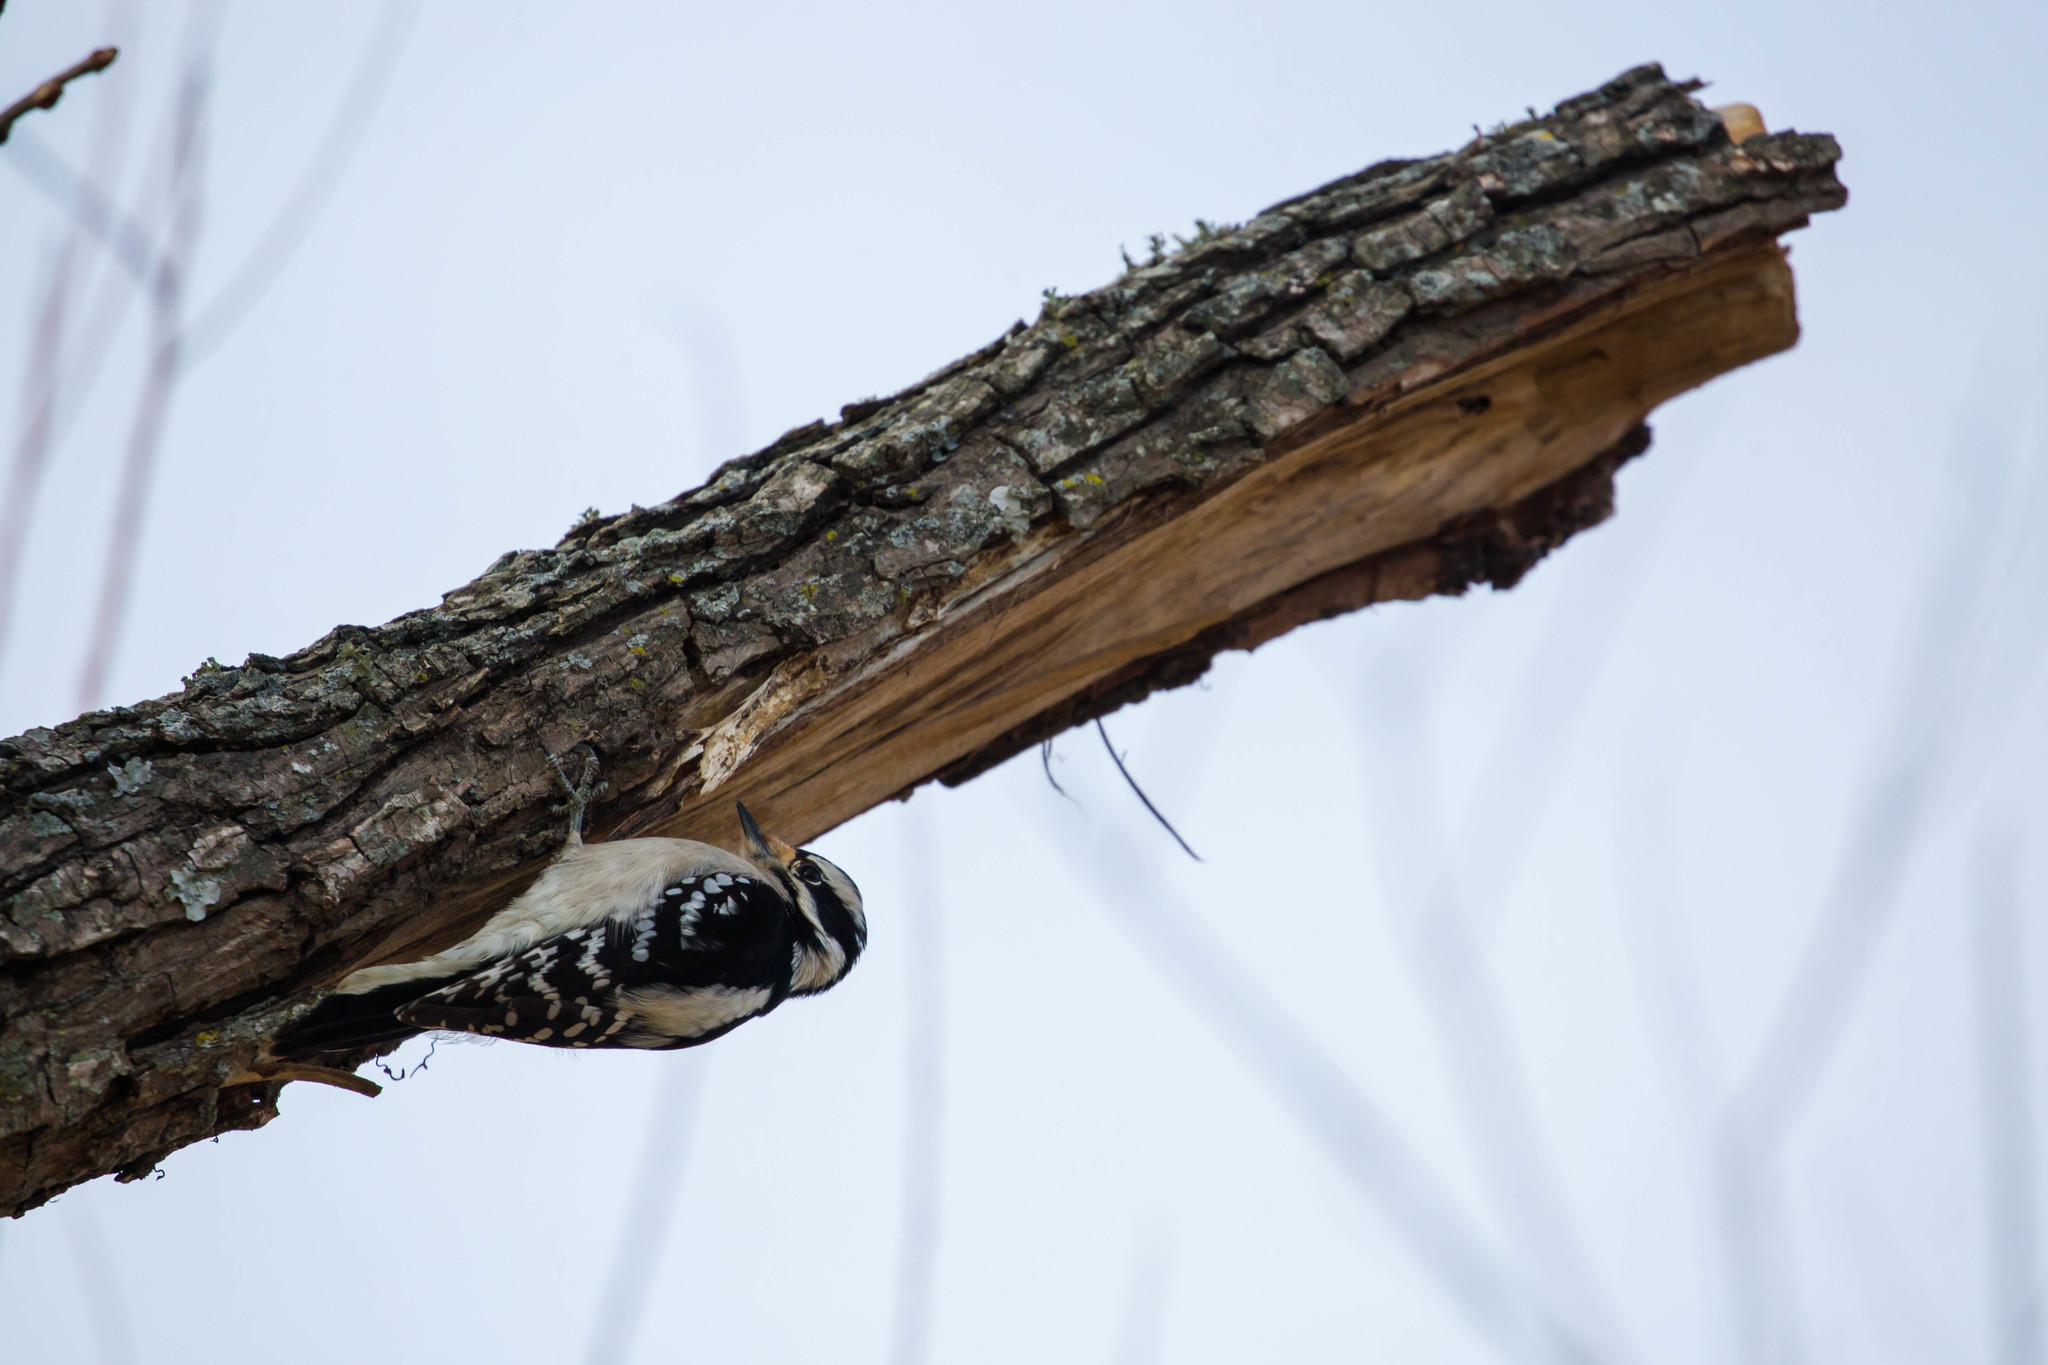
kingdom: Animalia
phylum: Chordata
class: Aves
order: Piciformes
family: Picidae
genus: Dryobates
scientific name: Dryobates pubescens
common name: Downy woodpecker
